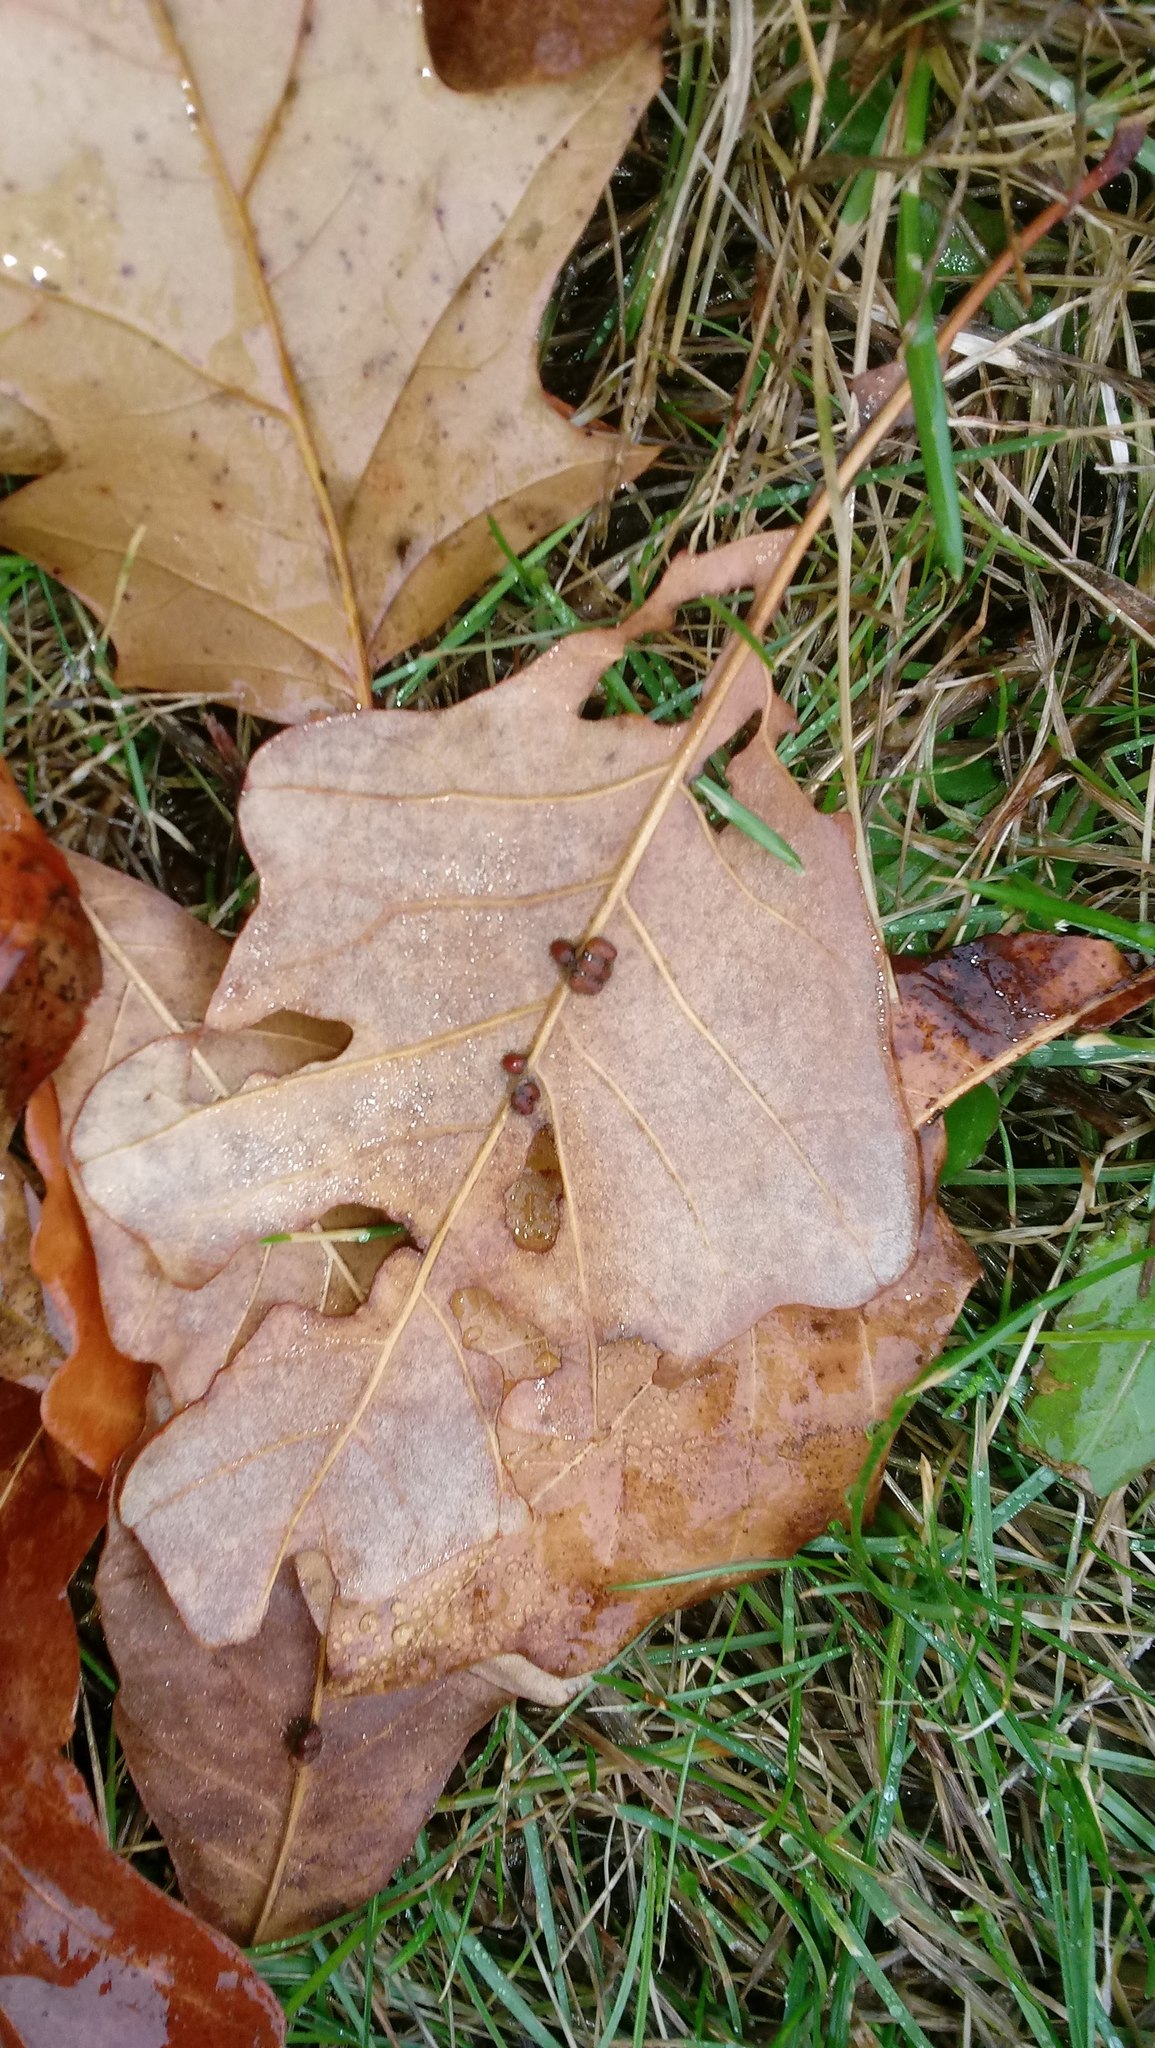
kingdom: Animalia
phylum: Arthropoda
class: Insecta
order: Hymenoptera
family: Cynipidae
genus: Andricus
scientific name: Andricus Druon ignotum
